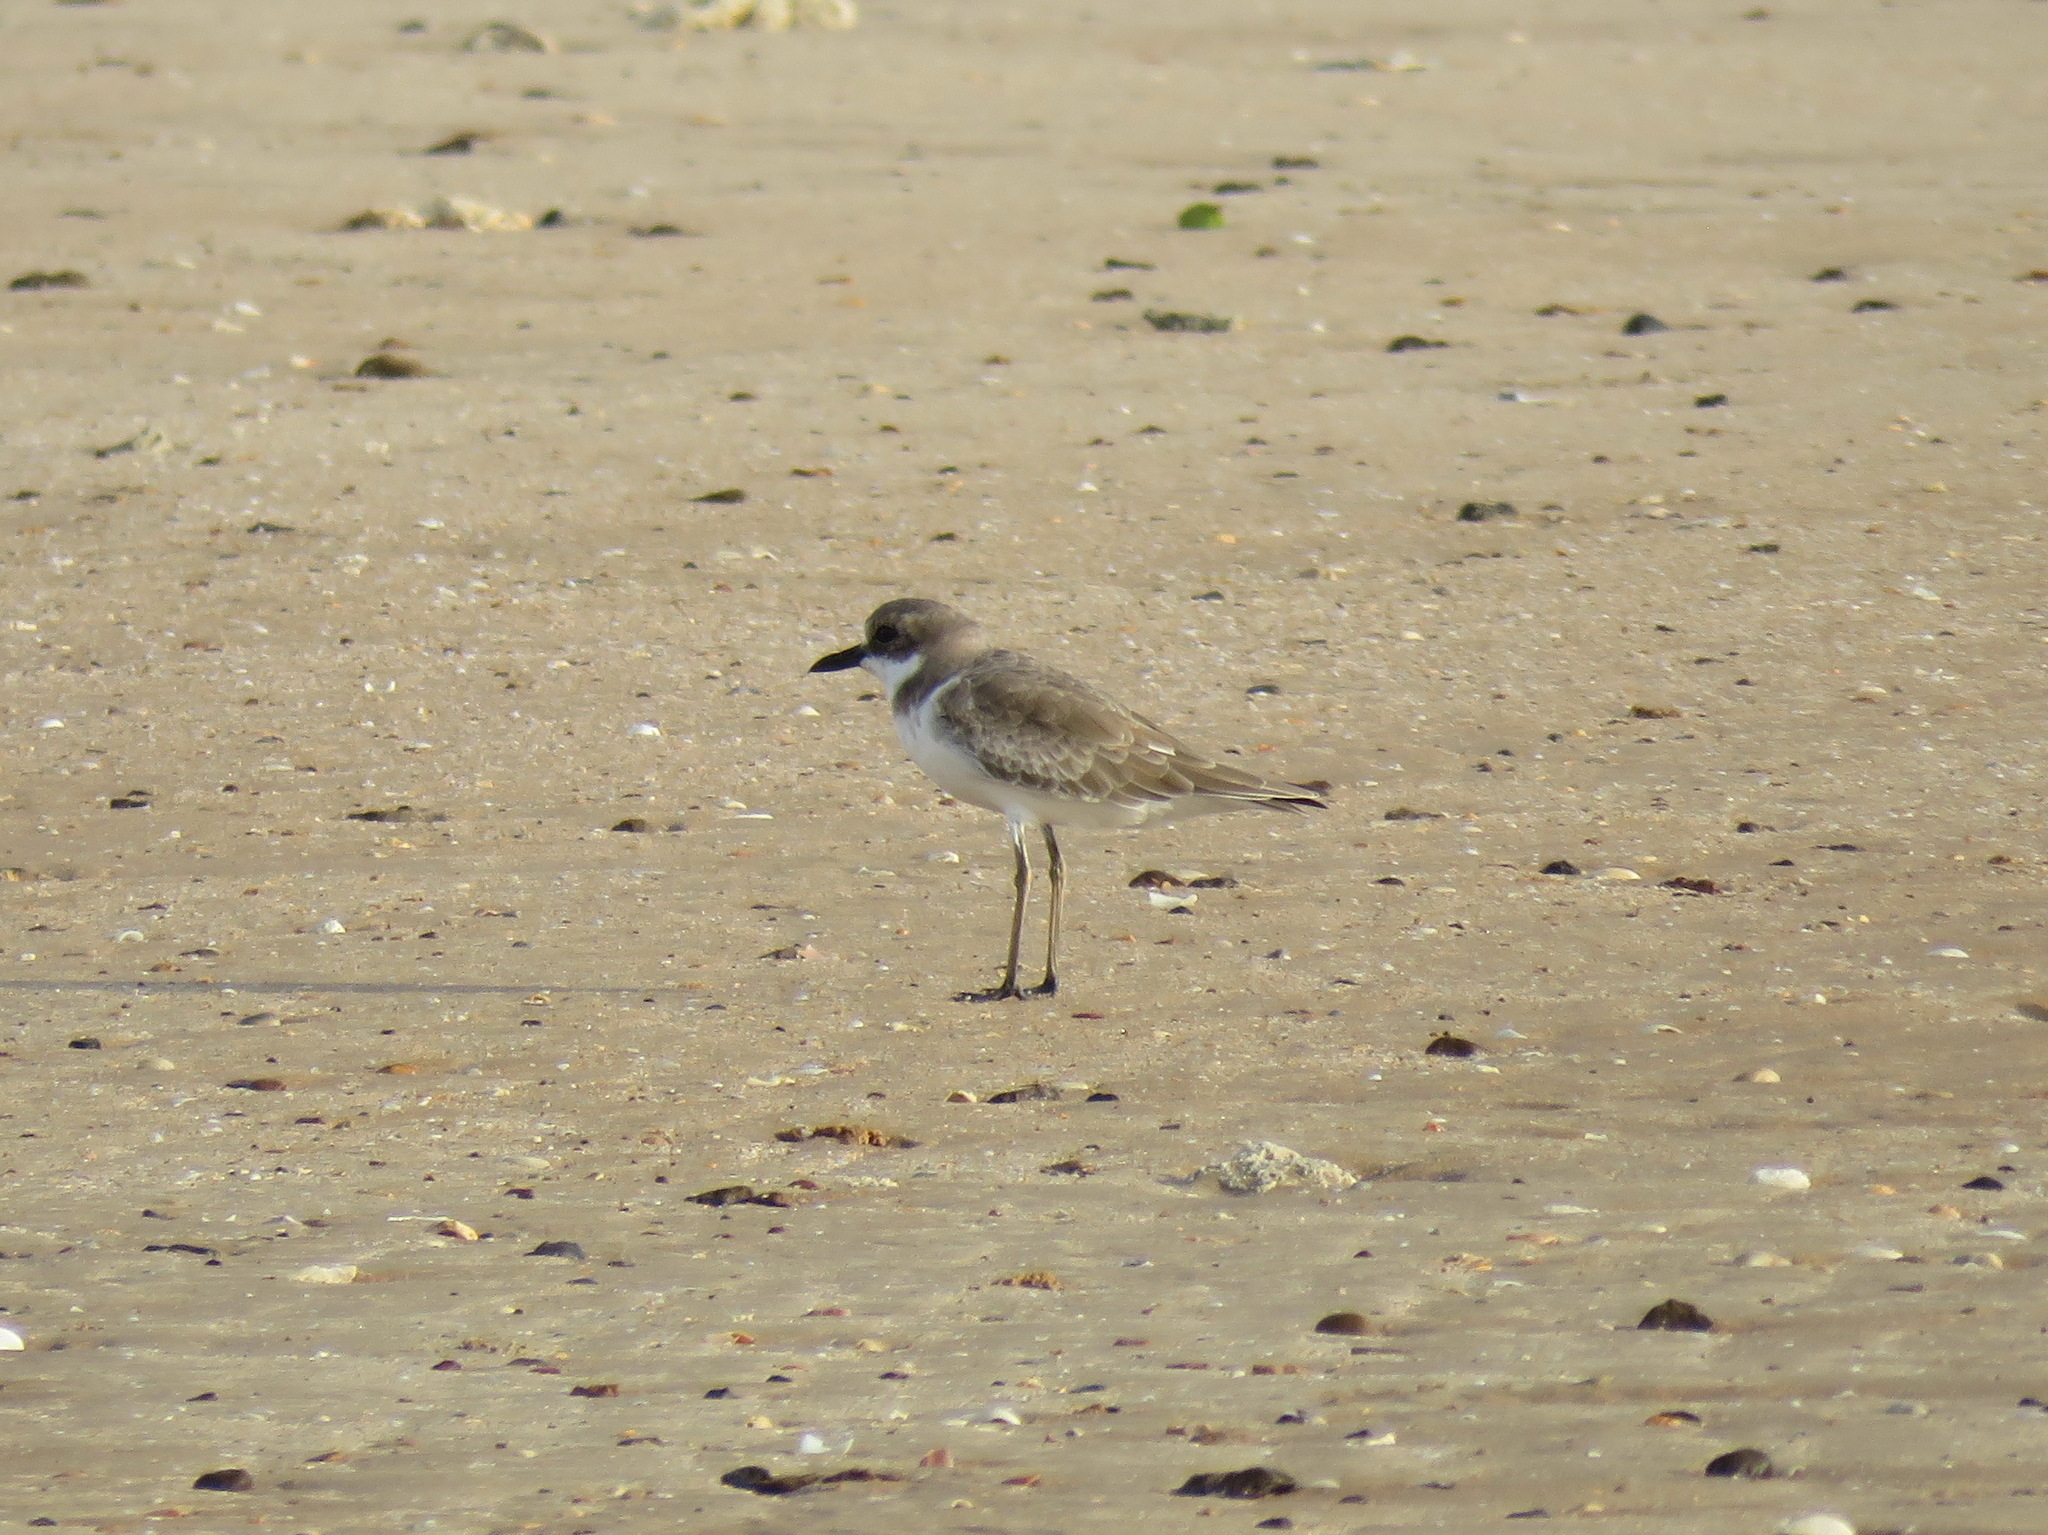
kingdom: Animalia
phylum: Chordata
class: Aves
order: Charadriiformes
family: Charadriidae
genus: Charadrius
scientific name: Charadrius leschenaultii
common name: Greater sand plover
